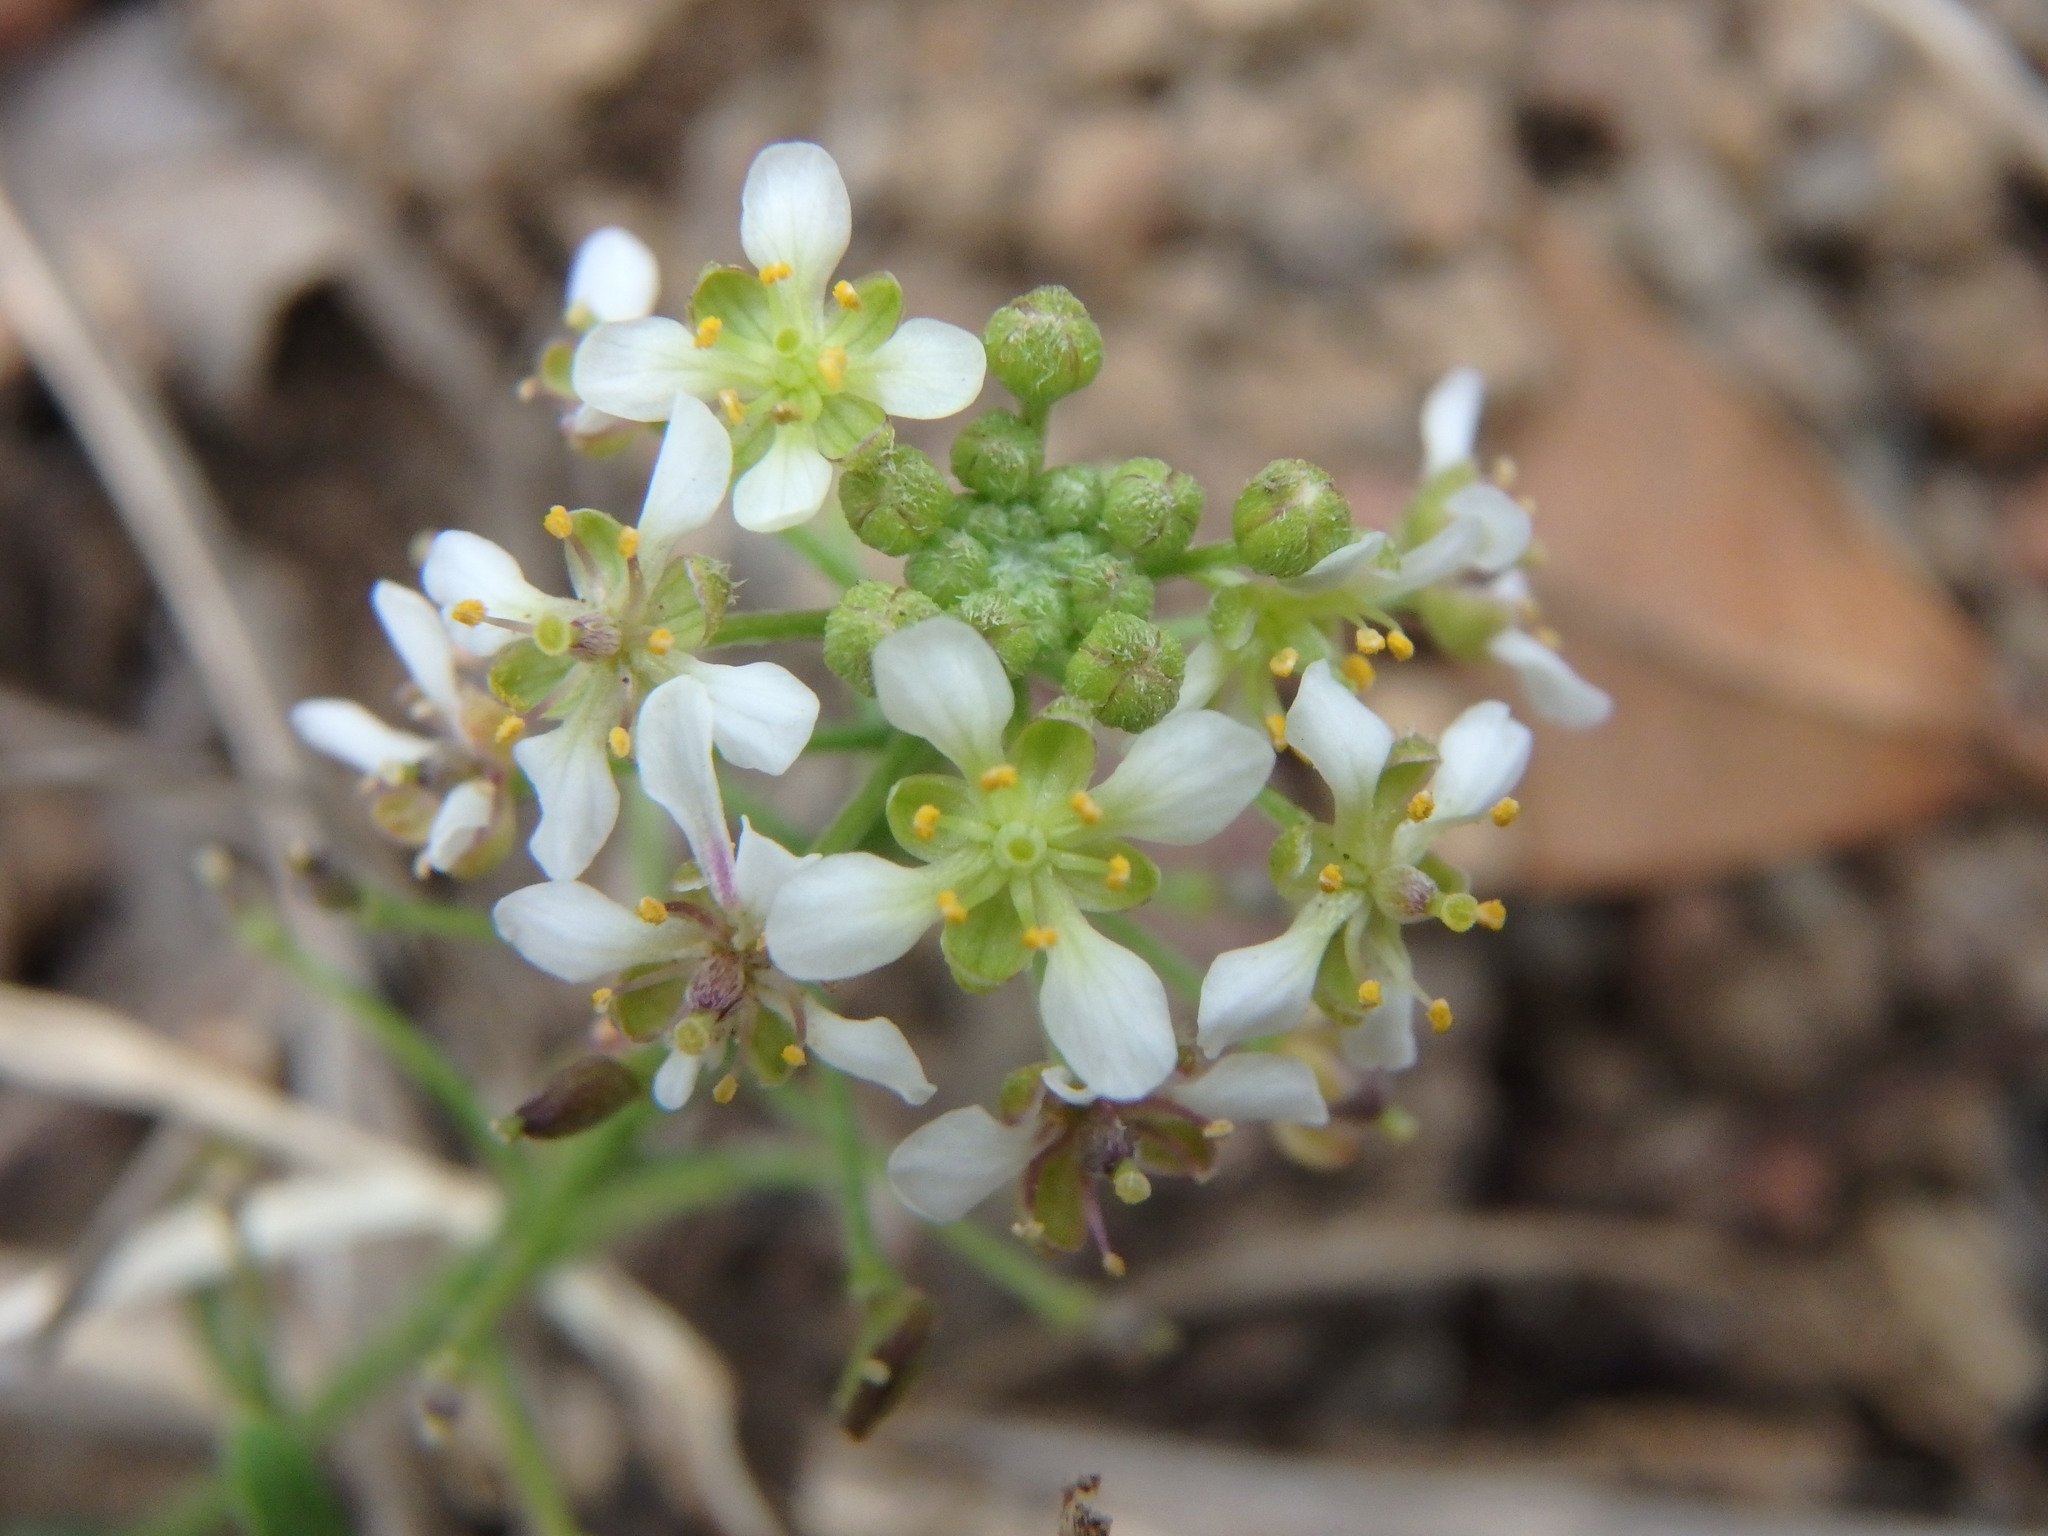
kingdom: Plantae
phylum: Tracheophyta
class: Magnoliopsida
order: Brassicales
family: Brassicaceae
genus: Lobularia
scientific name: Lobularia canariensis
